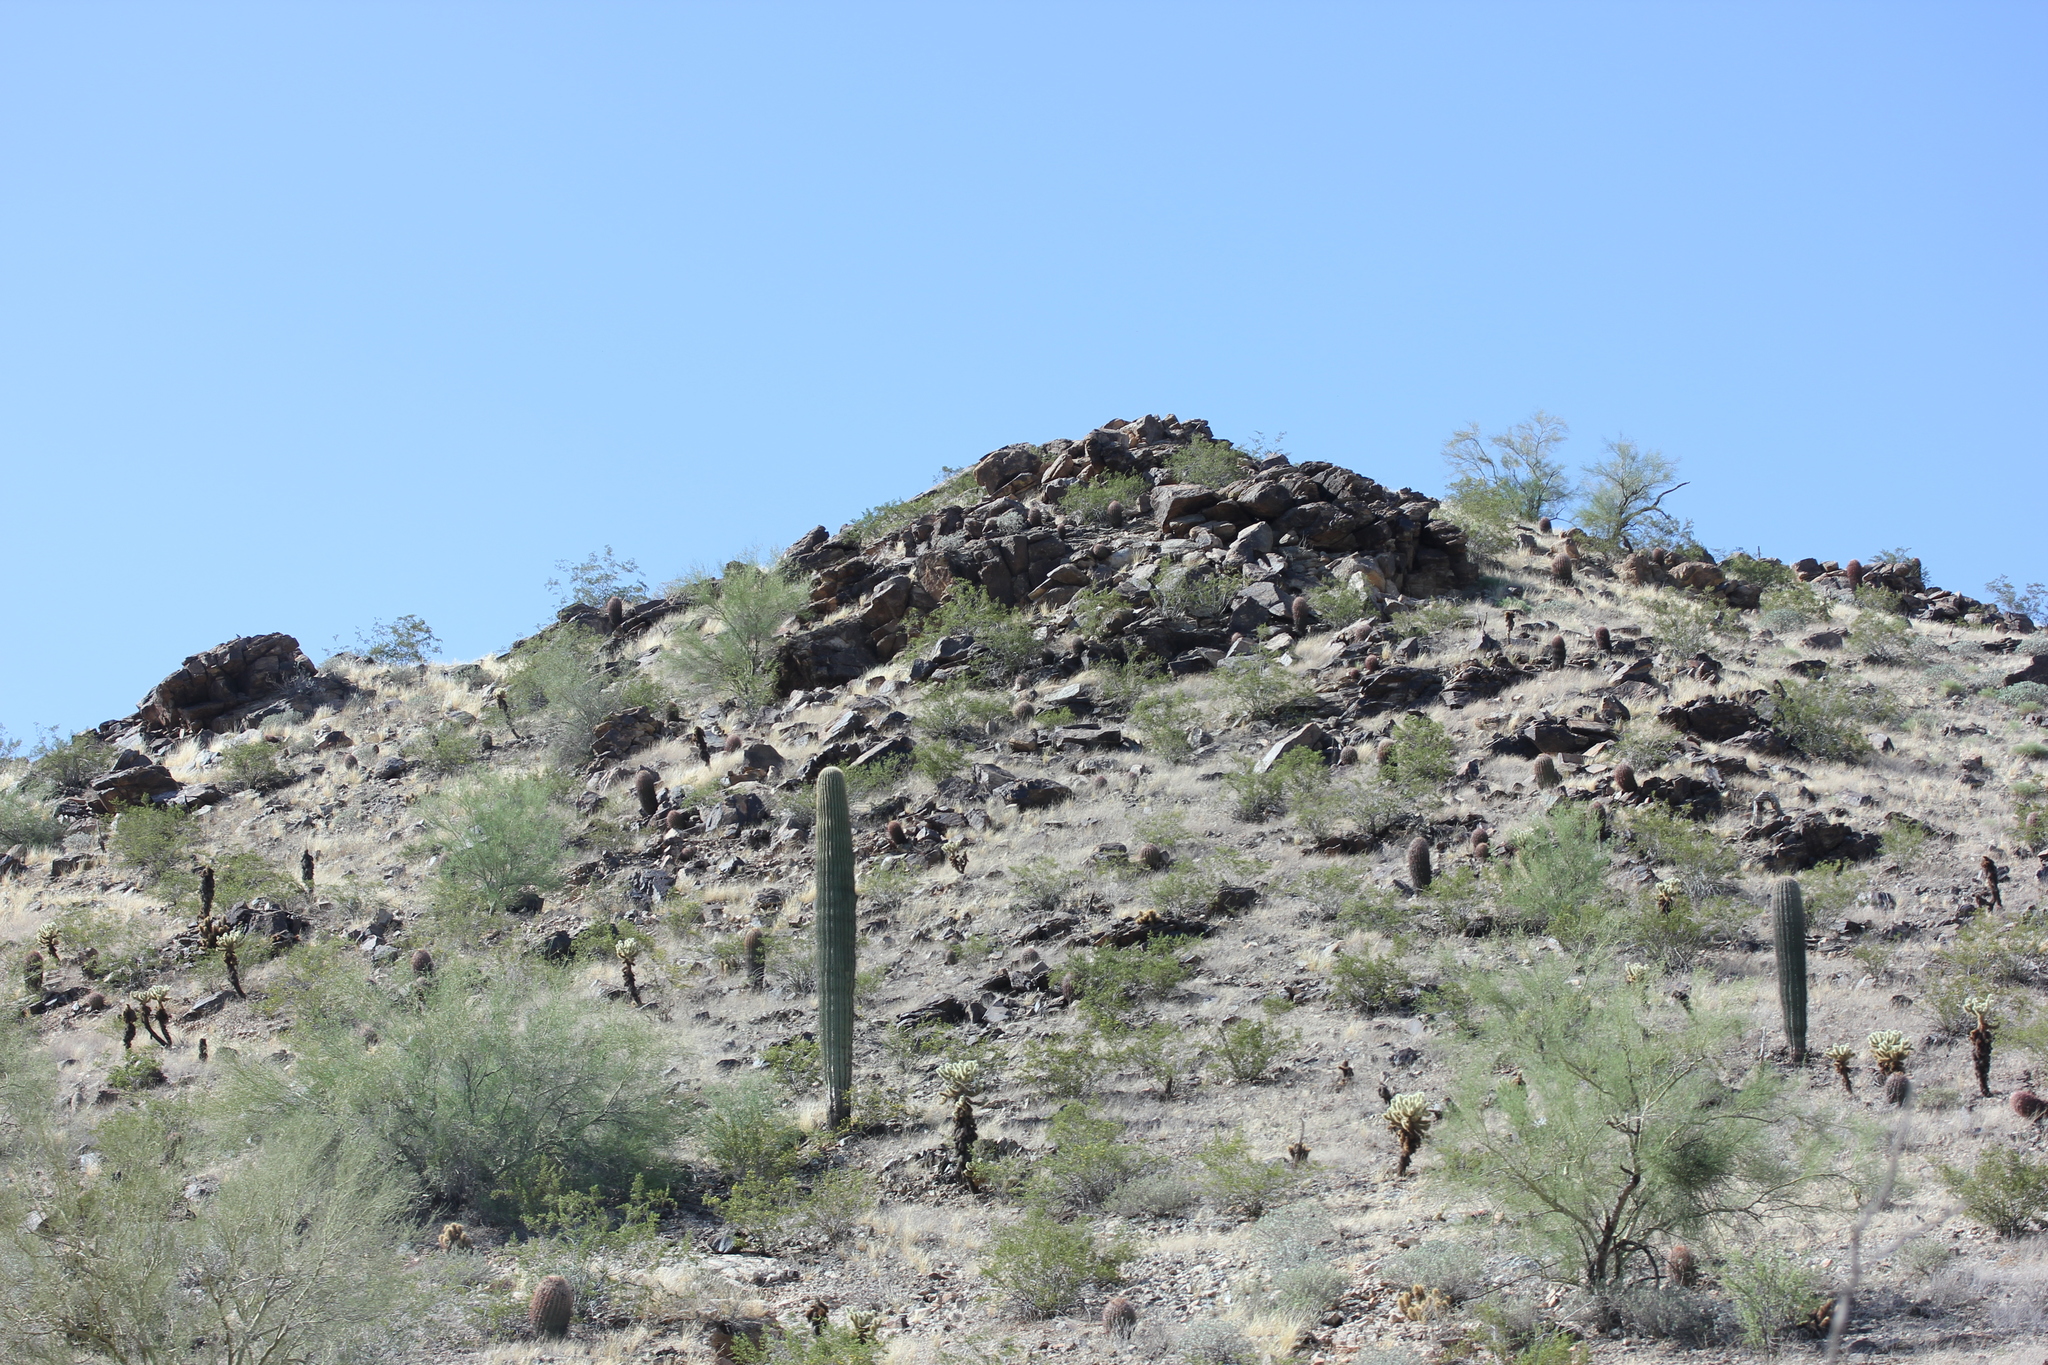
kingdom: Plantae
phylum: Tracheophyta
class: Magnoliopsida
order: Caryophyllales
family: Cactaceae
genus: Carnegiea
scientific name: Carnegiea gigantea
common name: Saguaro
